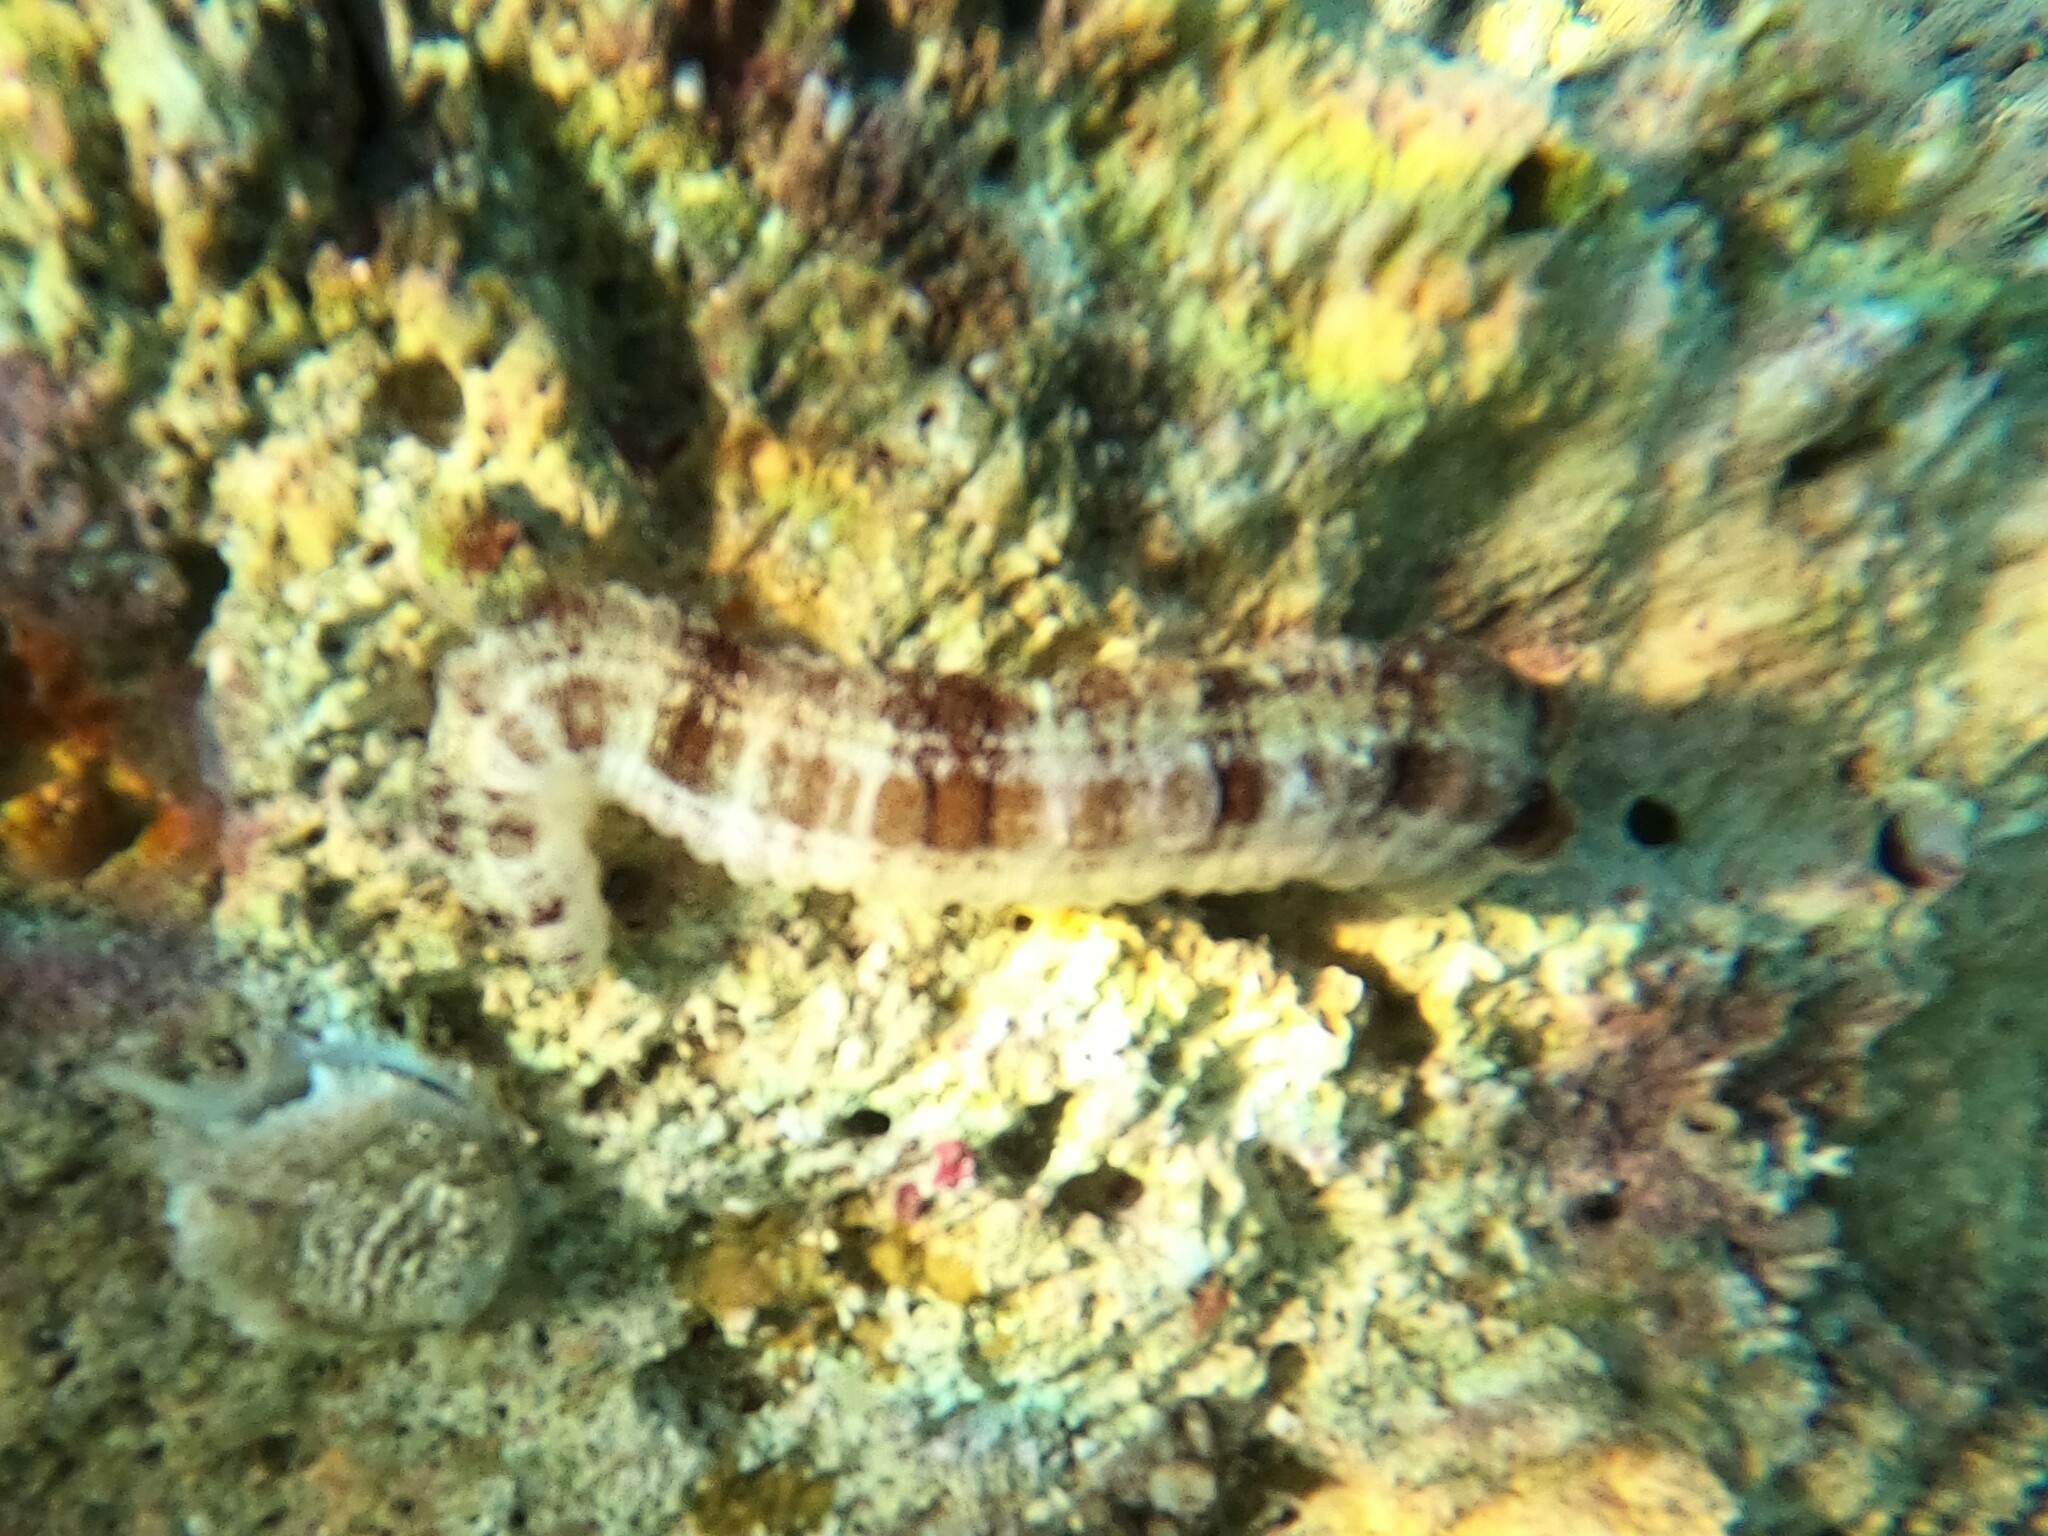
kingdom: Animalia
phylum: Echinodermata
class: Holothuroidea
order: Apodida
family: Synaptidae
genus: Euapta
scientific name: Euapta lappa
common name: Sticky-skinned sea cucumber
